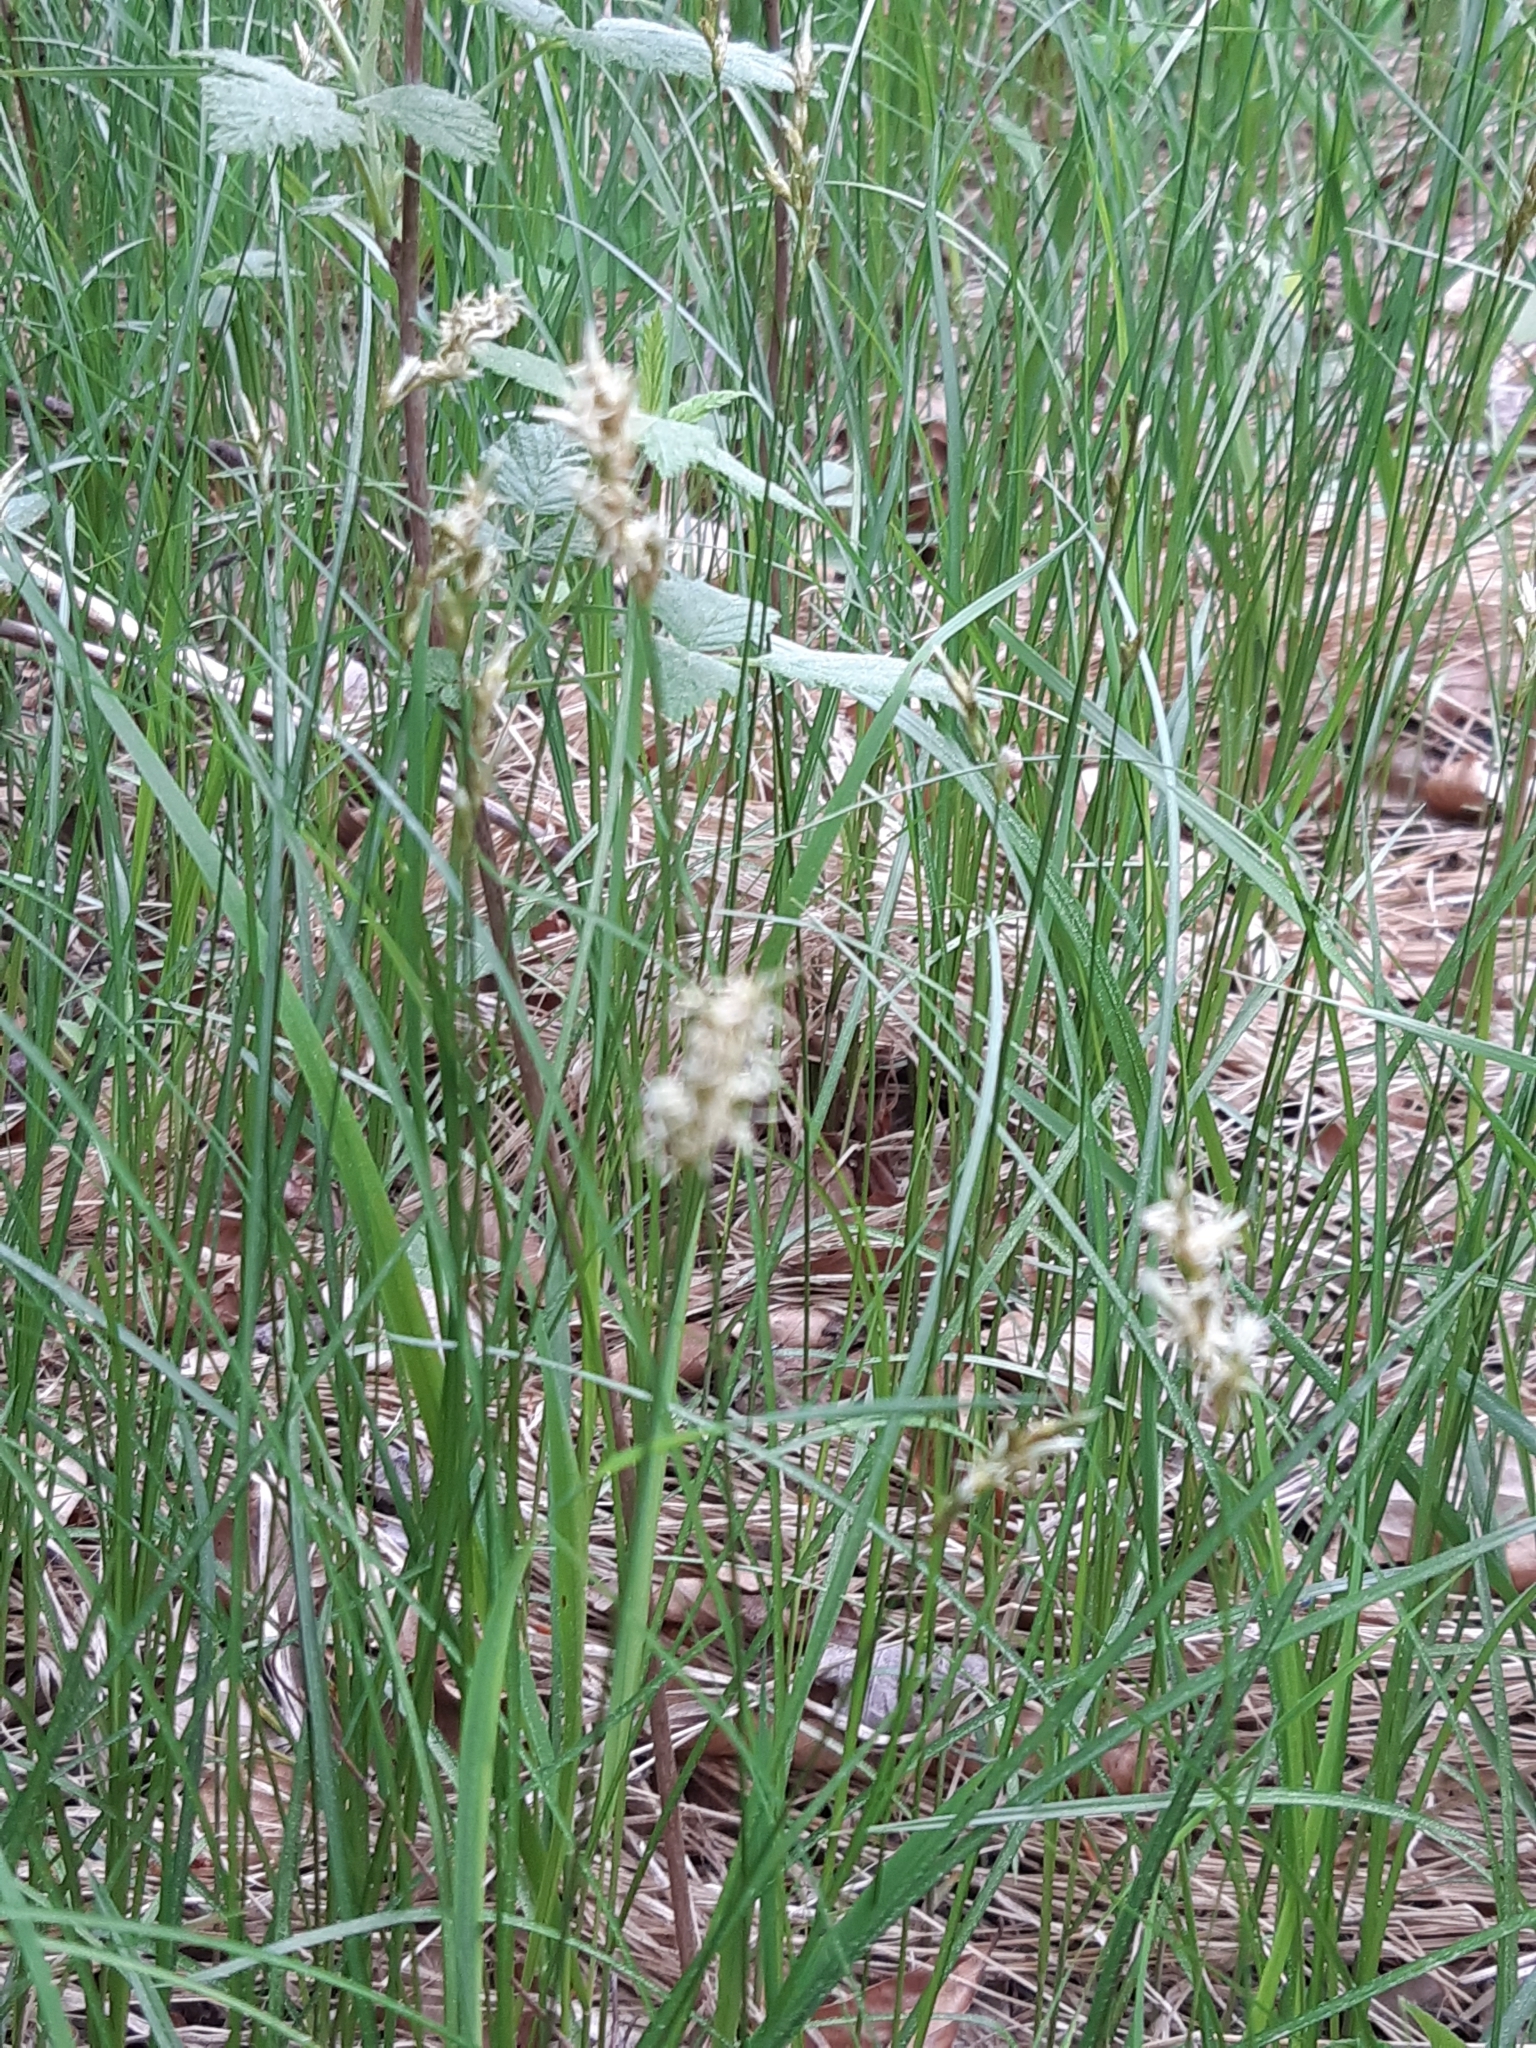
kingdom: Plantae
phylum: Tracheophyta
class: Liliopsida
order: Poales
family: Cyperaceae
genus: Carex
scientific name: Carex brizoides
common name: Quaking-grass sedge
